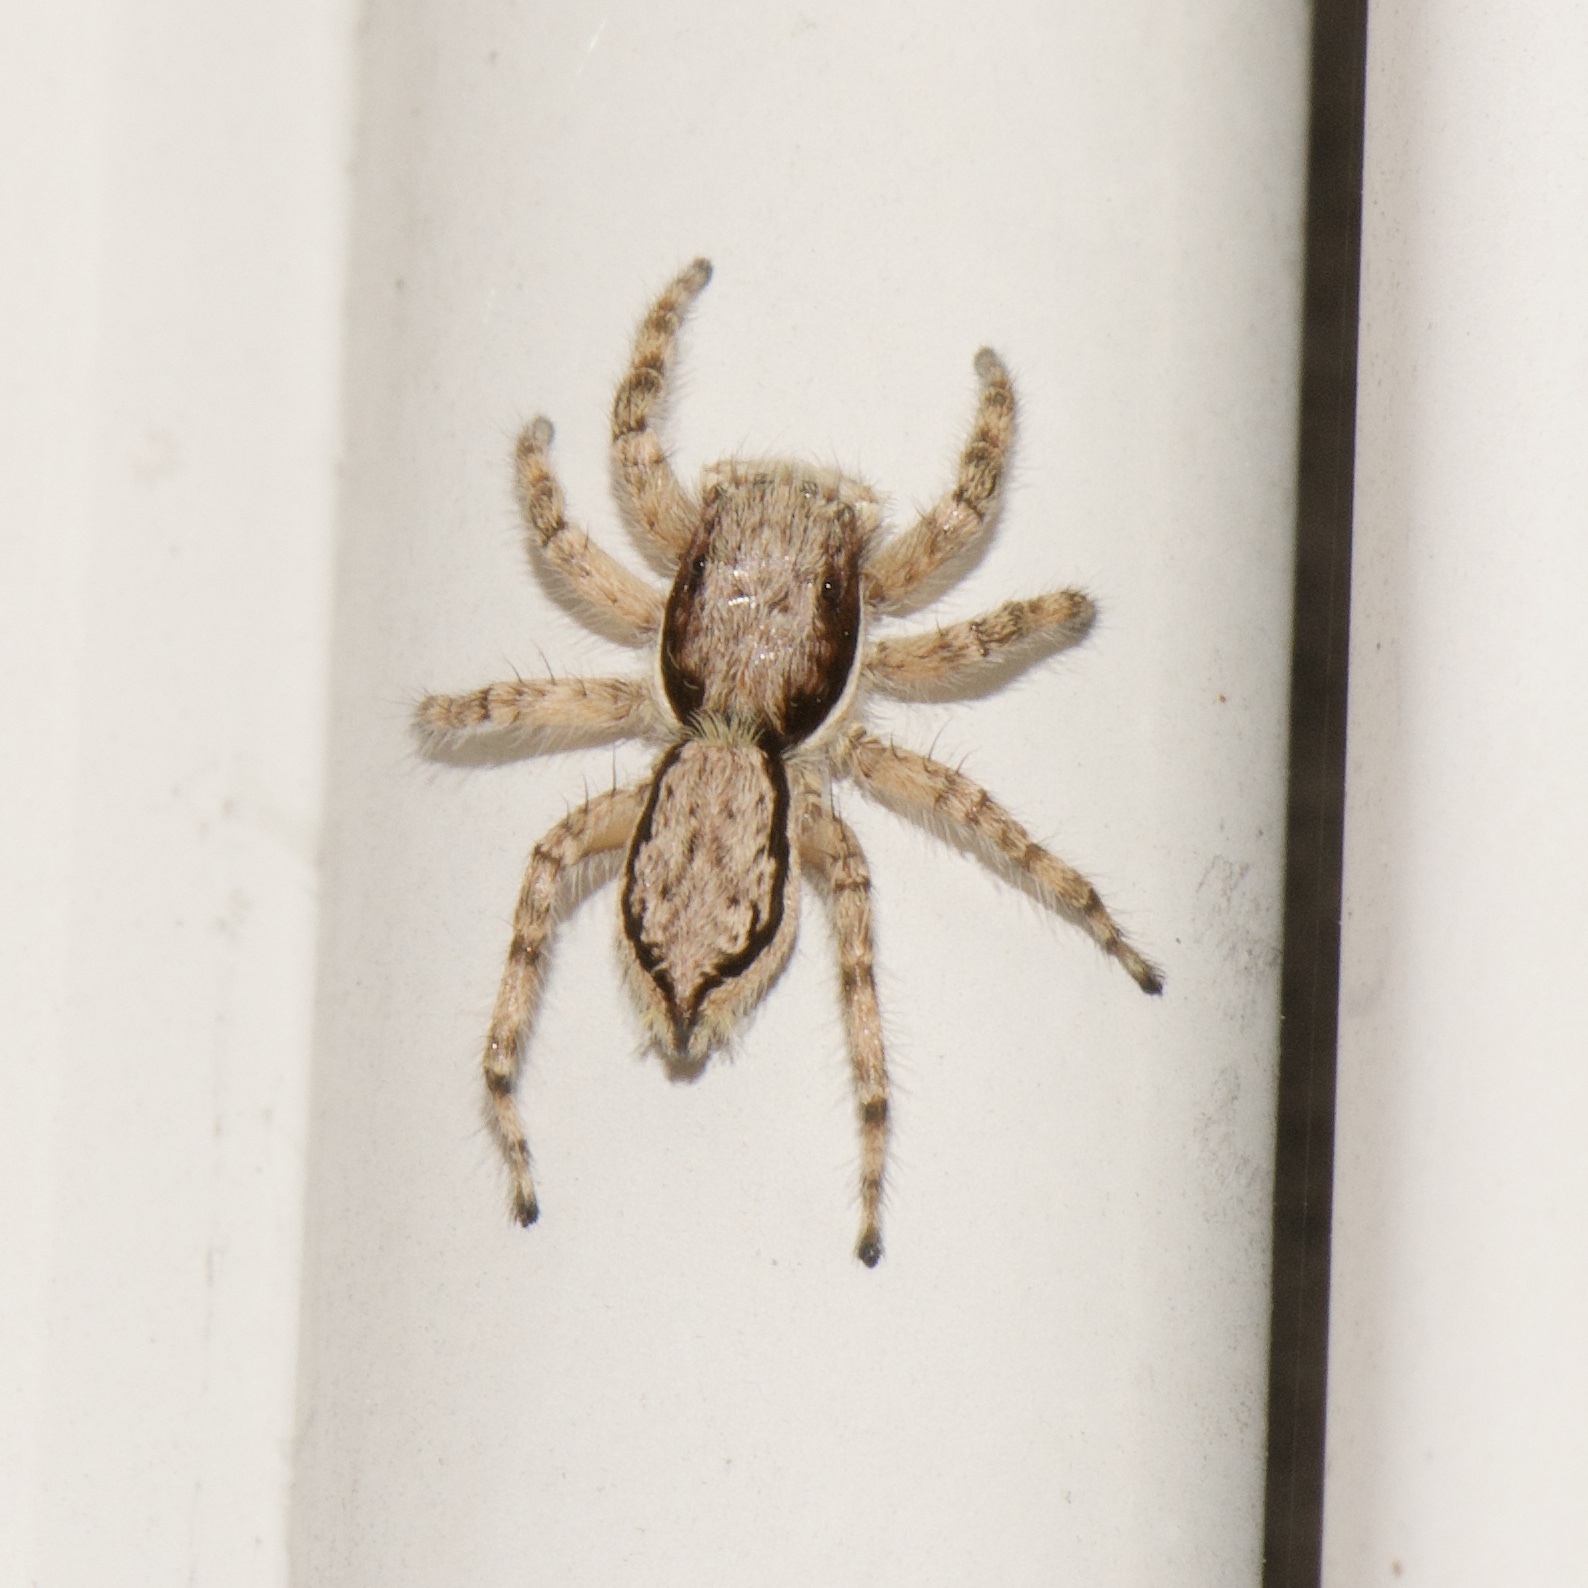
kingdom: Animalia
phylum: Arthropoda
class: Arachnida
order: Araneae
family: Salticidae
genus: Menemerus
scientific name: Menemerus bivittatus
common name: Gray wall jumper
